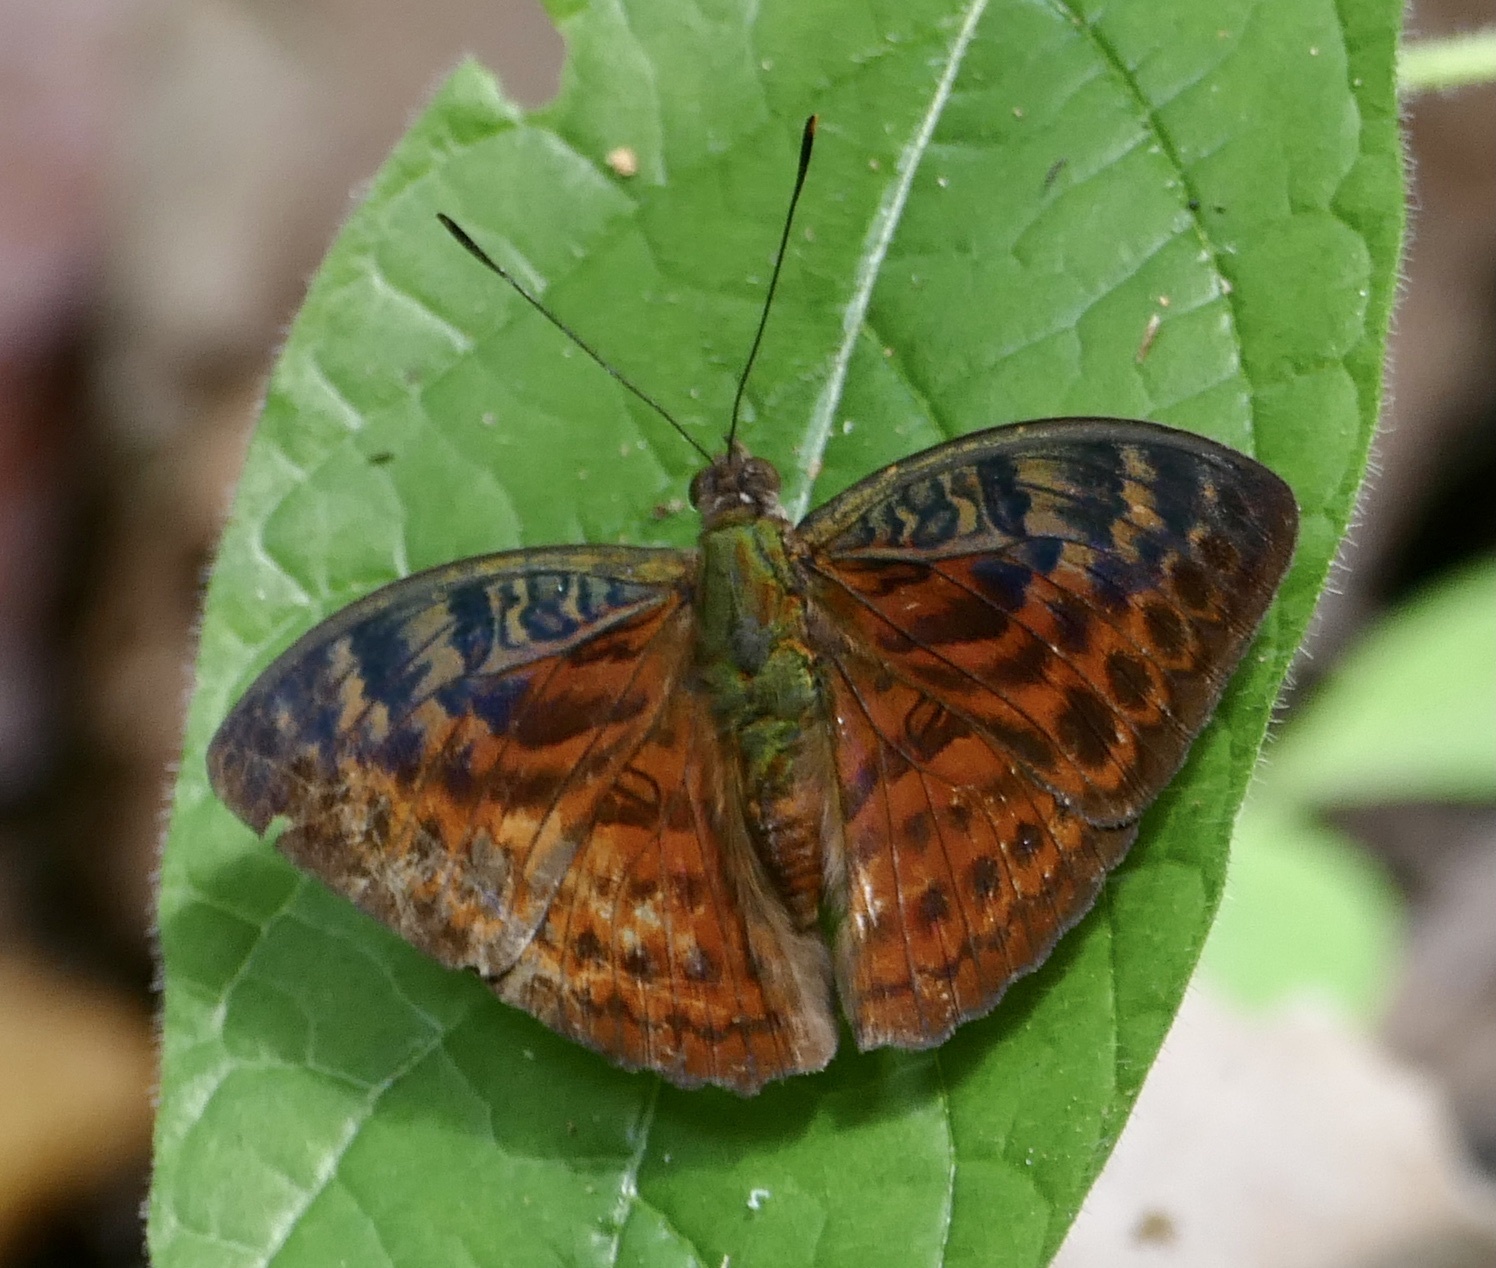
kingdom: Animalia
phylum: Arthropoda
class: Insecta
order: Lepidoptera
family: Nymphalidae
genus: Bebearia
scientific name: Bebearia tentyris
